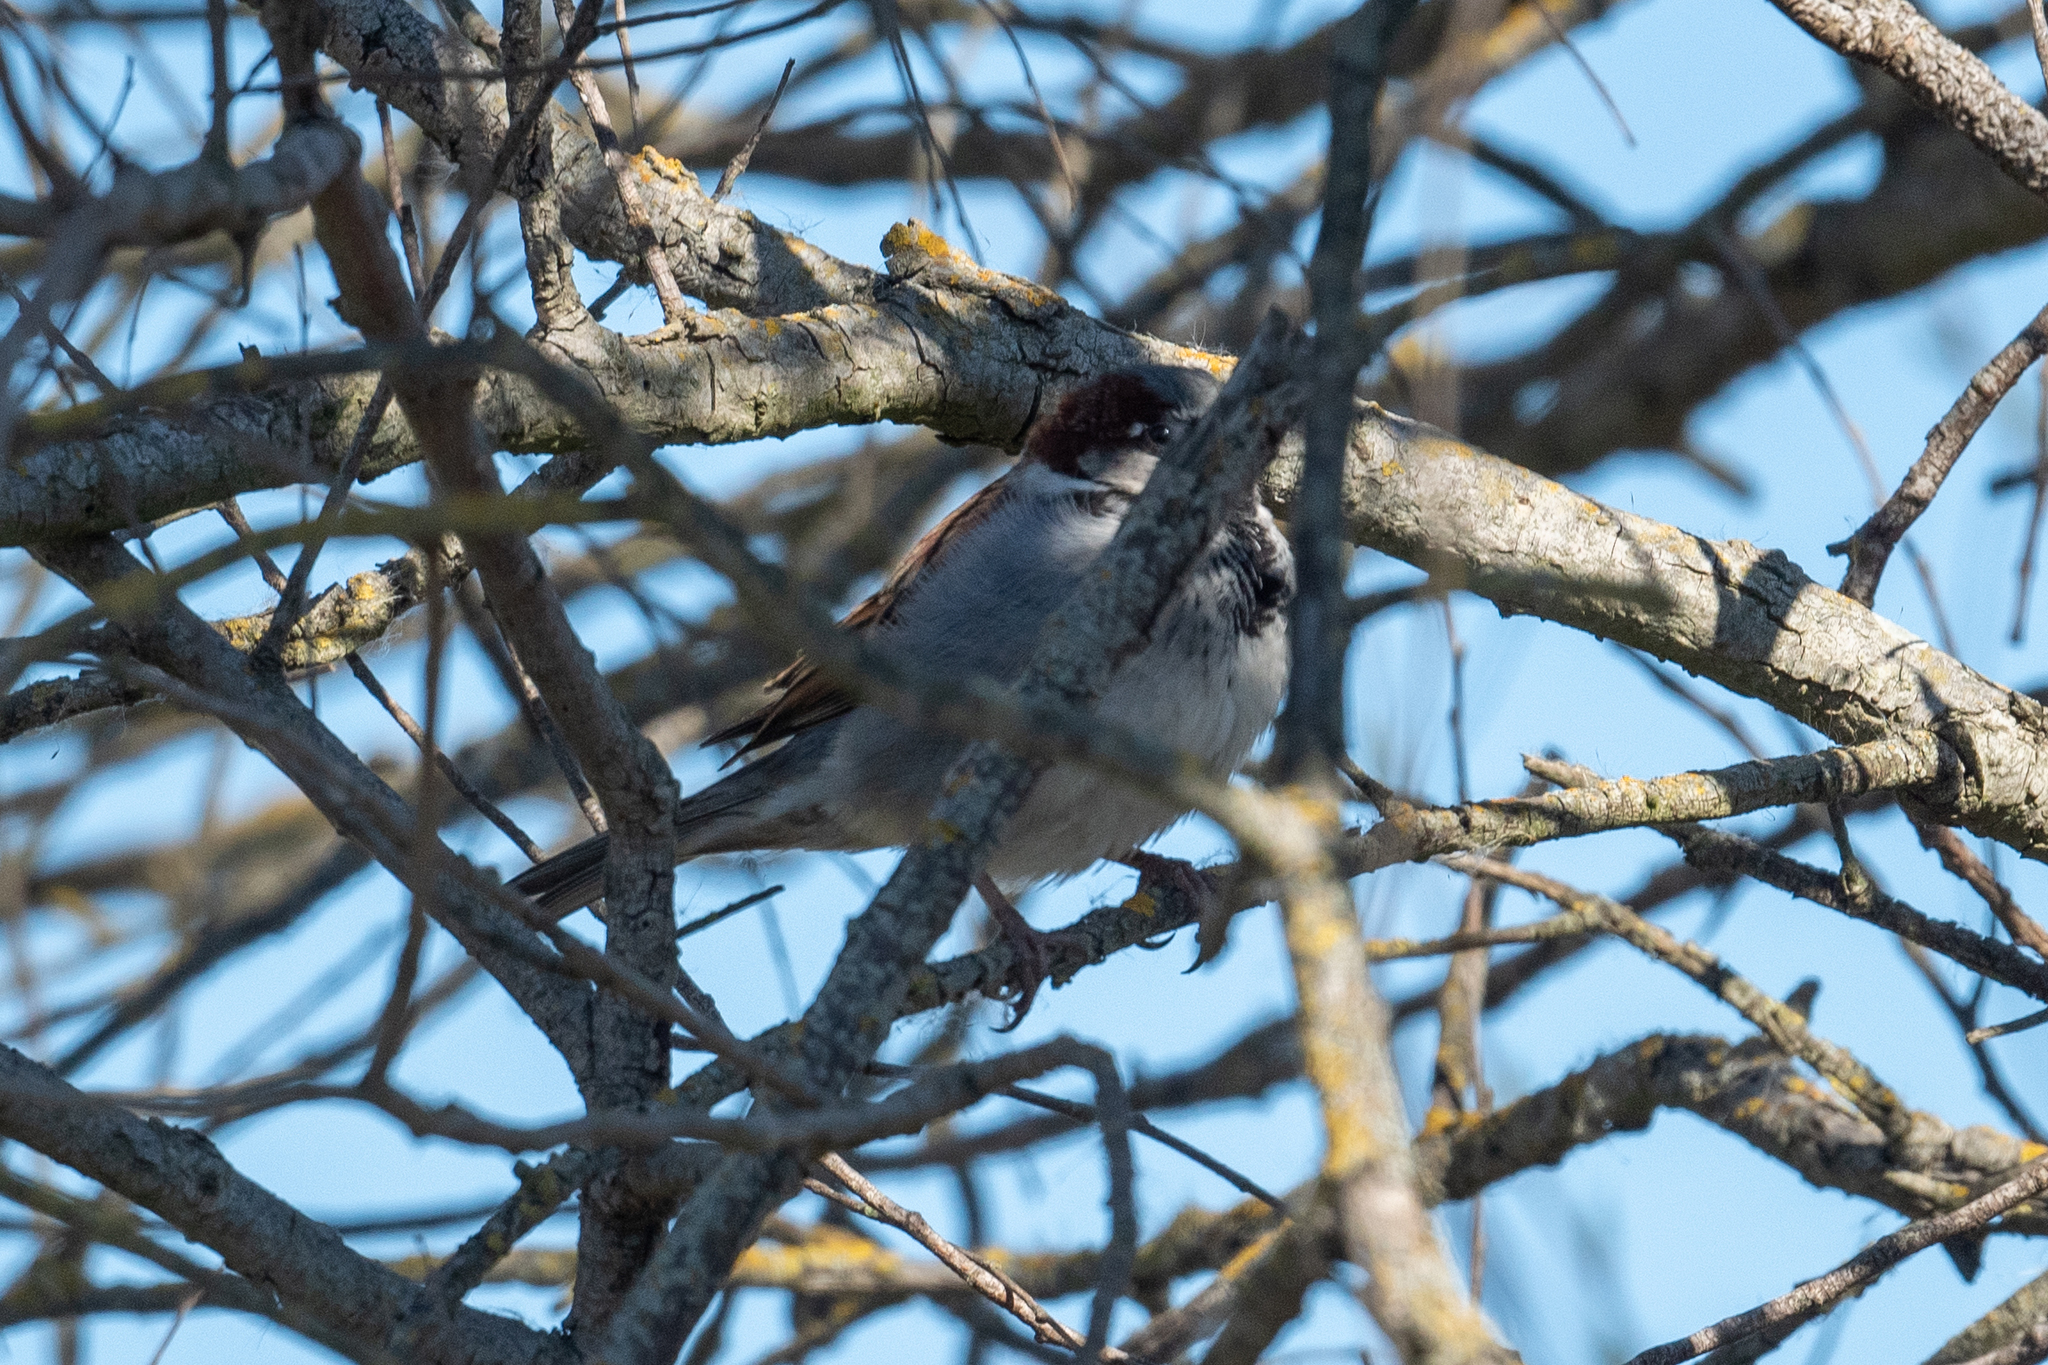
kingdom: Animalia
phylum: Chordata
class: Aves
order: Passeriformes
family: Passeridae
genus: Passer
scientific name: Passer domesticus
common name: House sparrow
